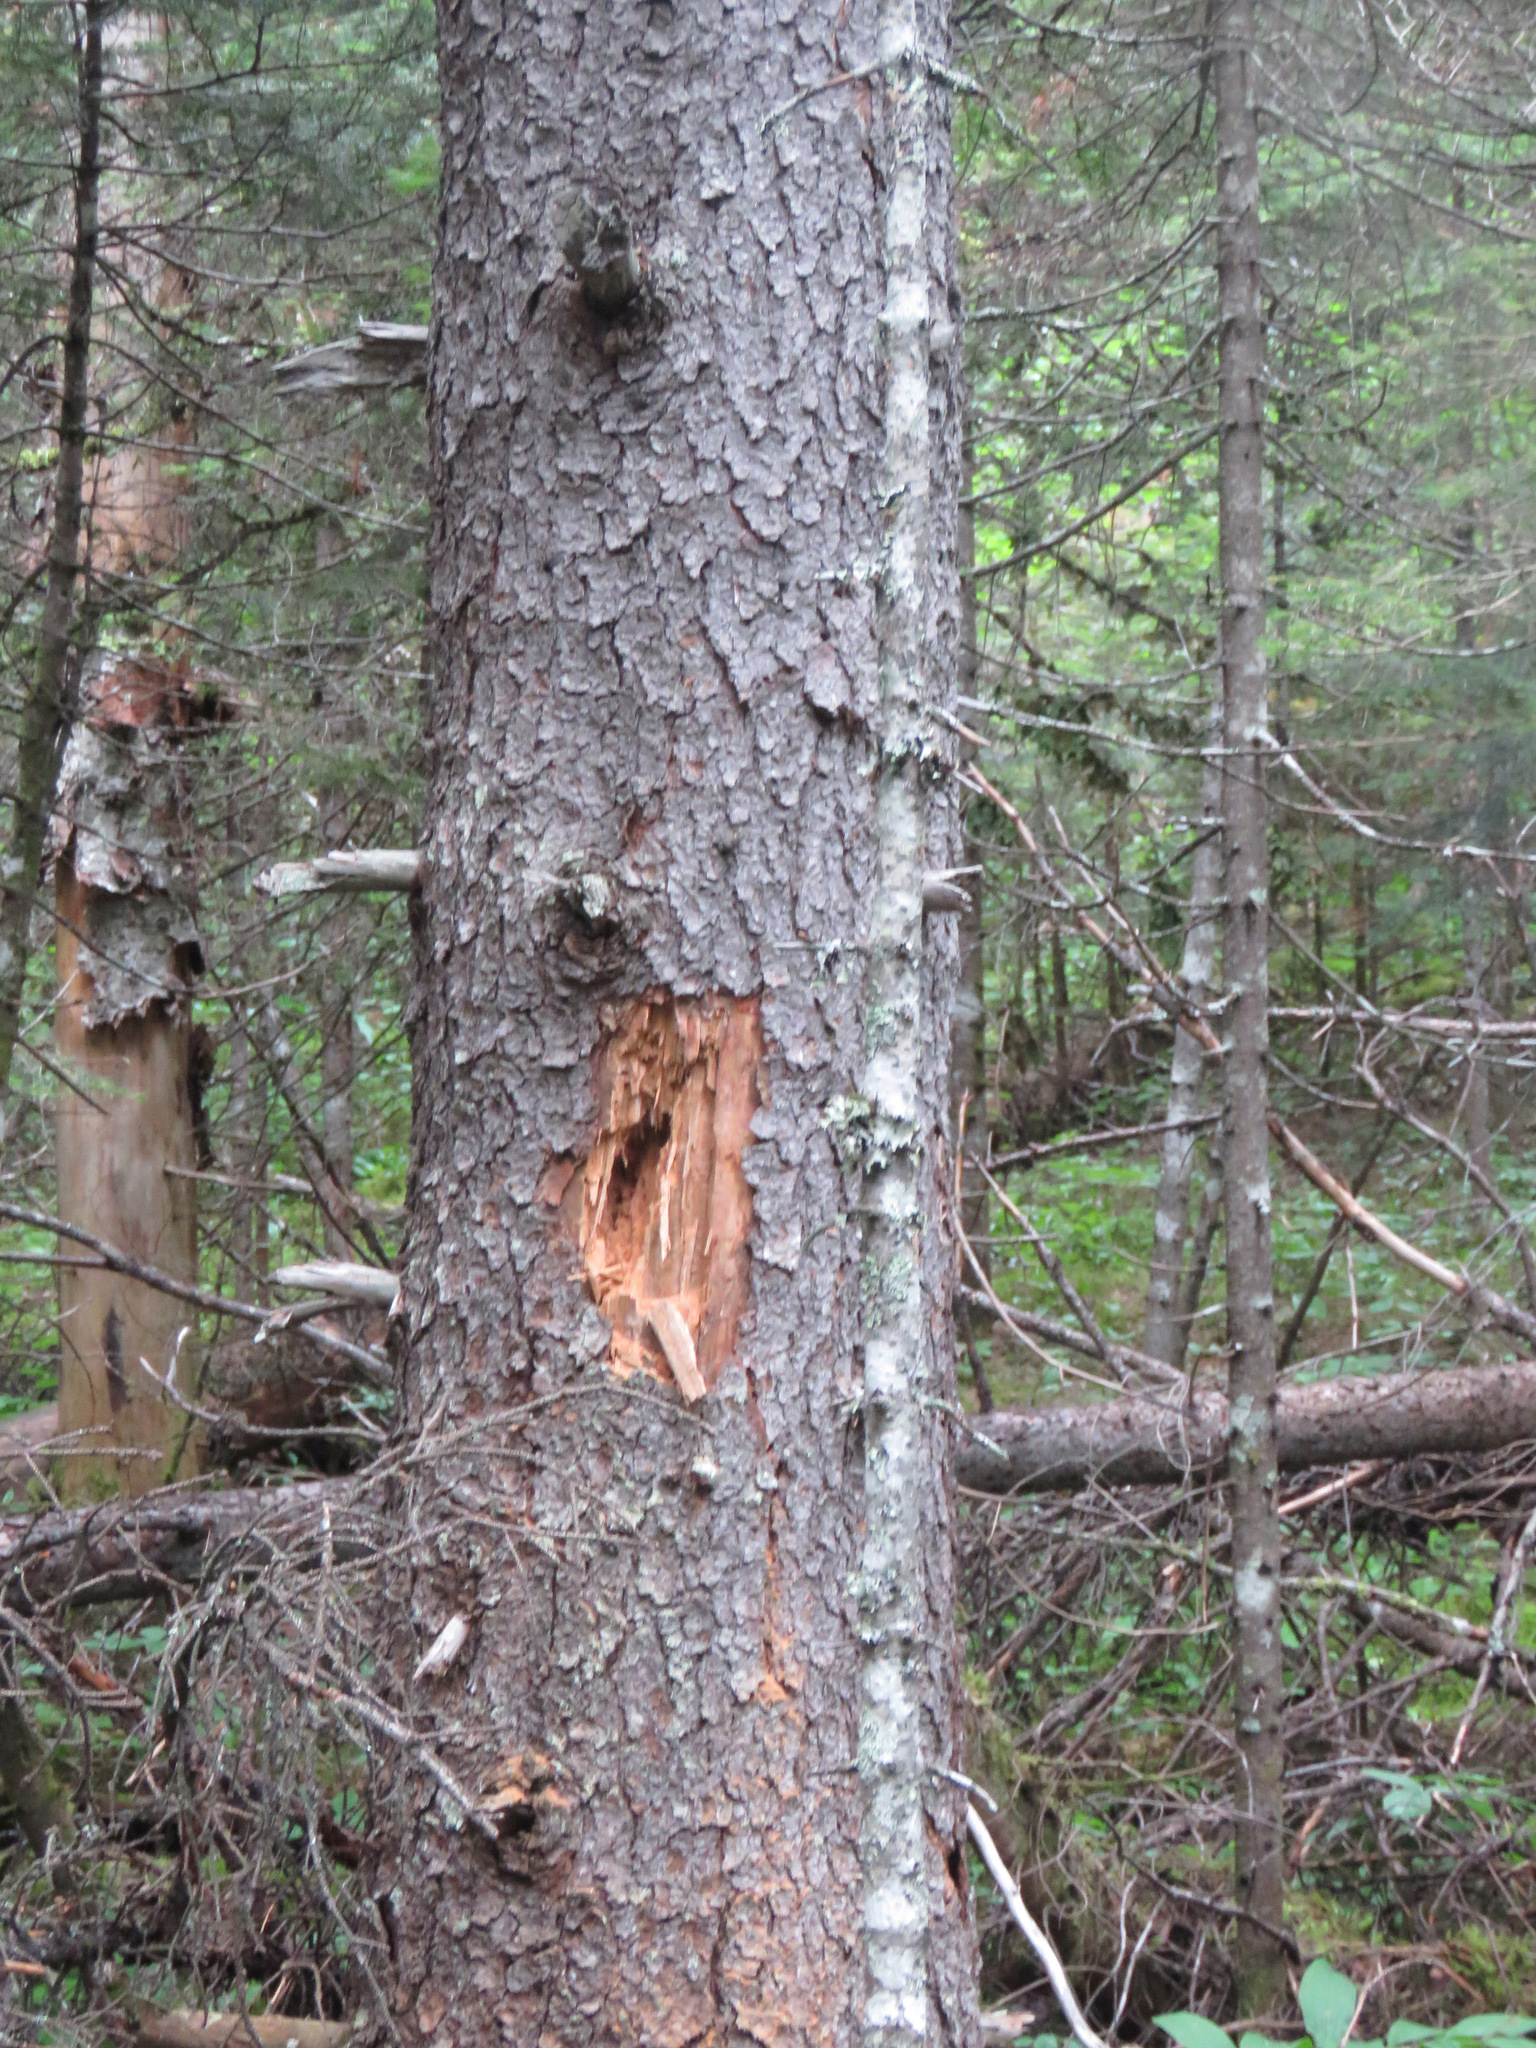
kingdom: Animalia
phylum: Chordata
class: Aves
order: Piciformes
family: Picidae
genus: Dryocopus
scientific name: Dryocopus pileatus
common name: Pileated woodpecker
